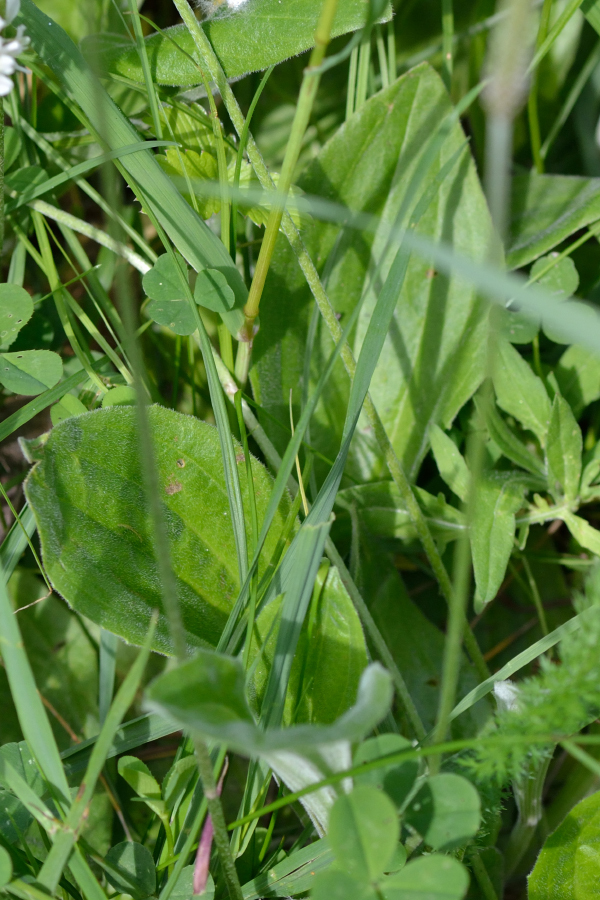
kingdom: Plantae
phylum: Tracheophyta
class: Magnoliopsida
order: Lamiales
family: Plantaginaceae
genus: Plantago
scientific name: Plantago media
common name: Hoary plantain
